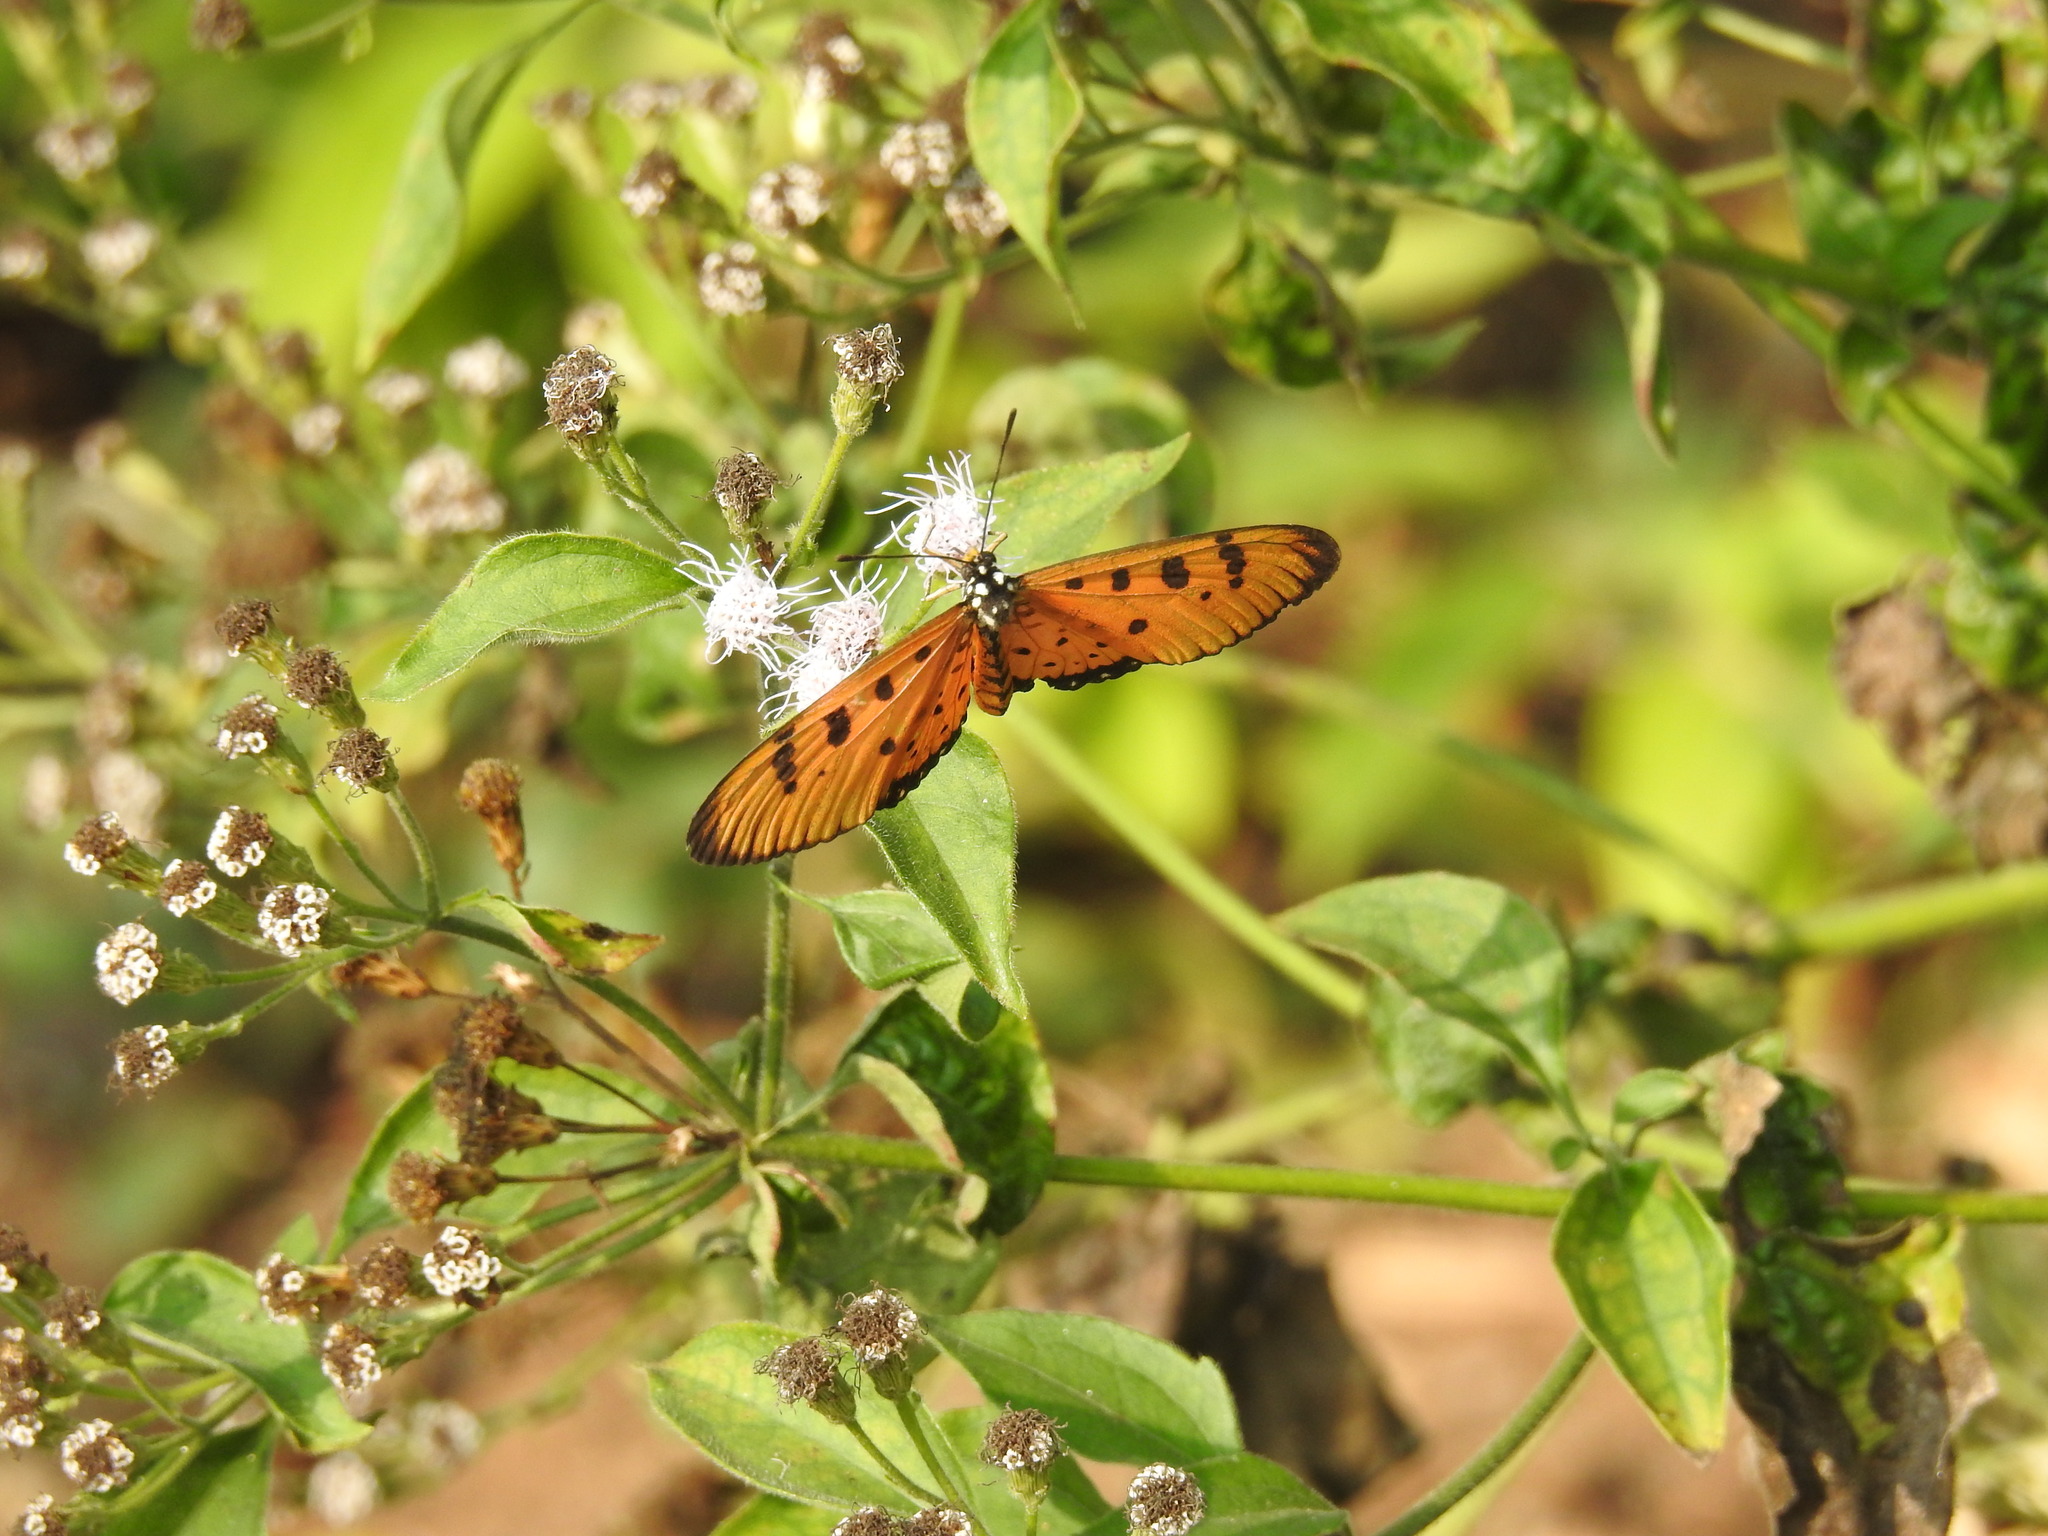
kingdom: Animalia
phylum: Arthropoda
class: Insecta
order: Lepidoptera
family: Nymphalidae
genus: Acraea
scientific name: Acraea terpsicore
